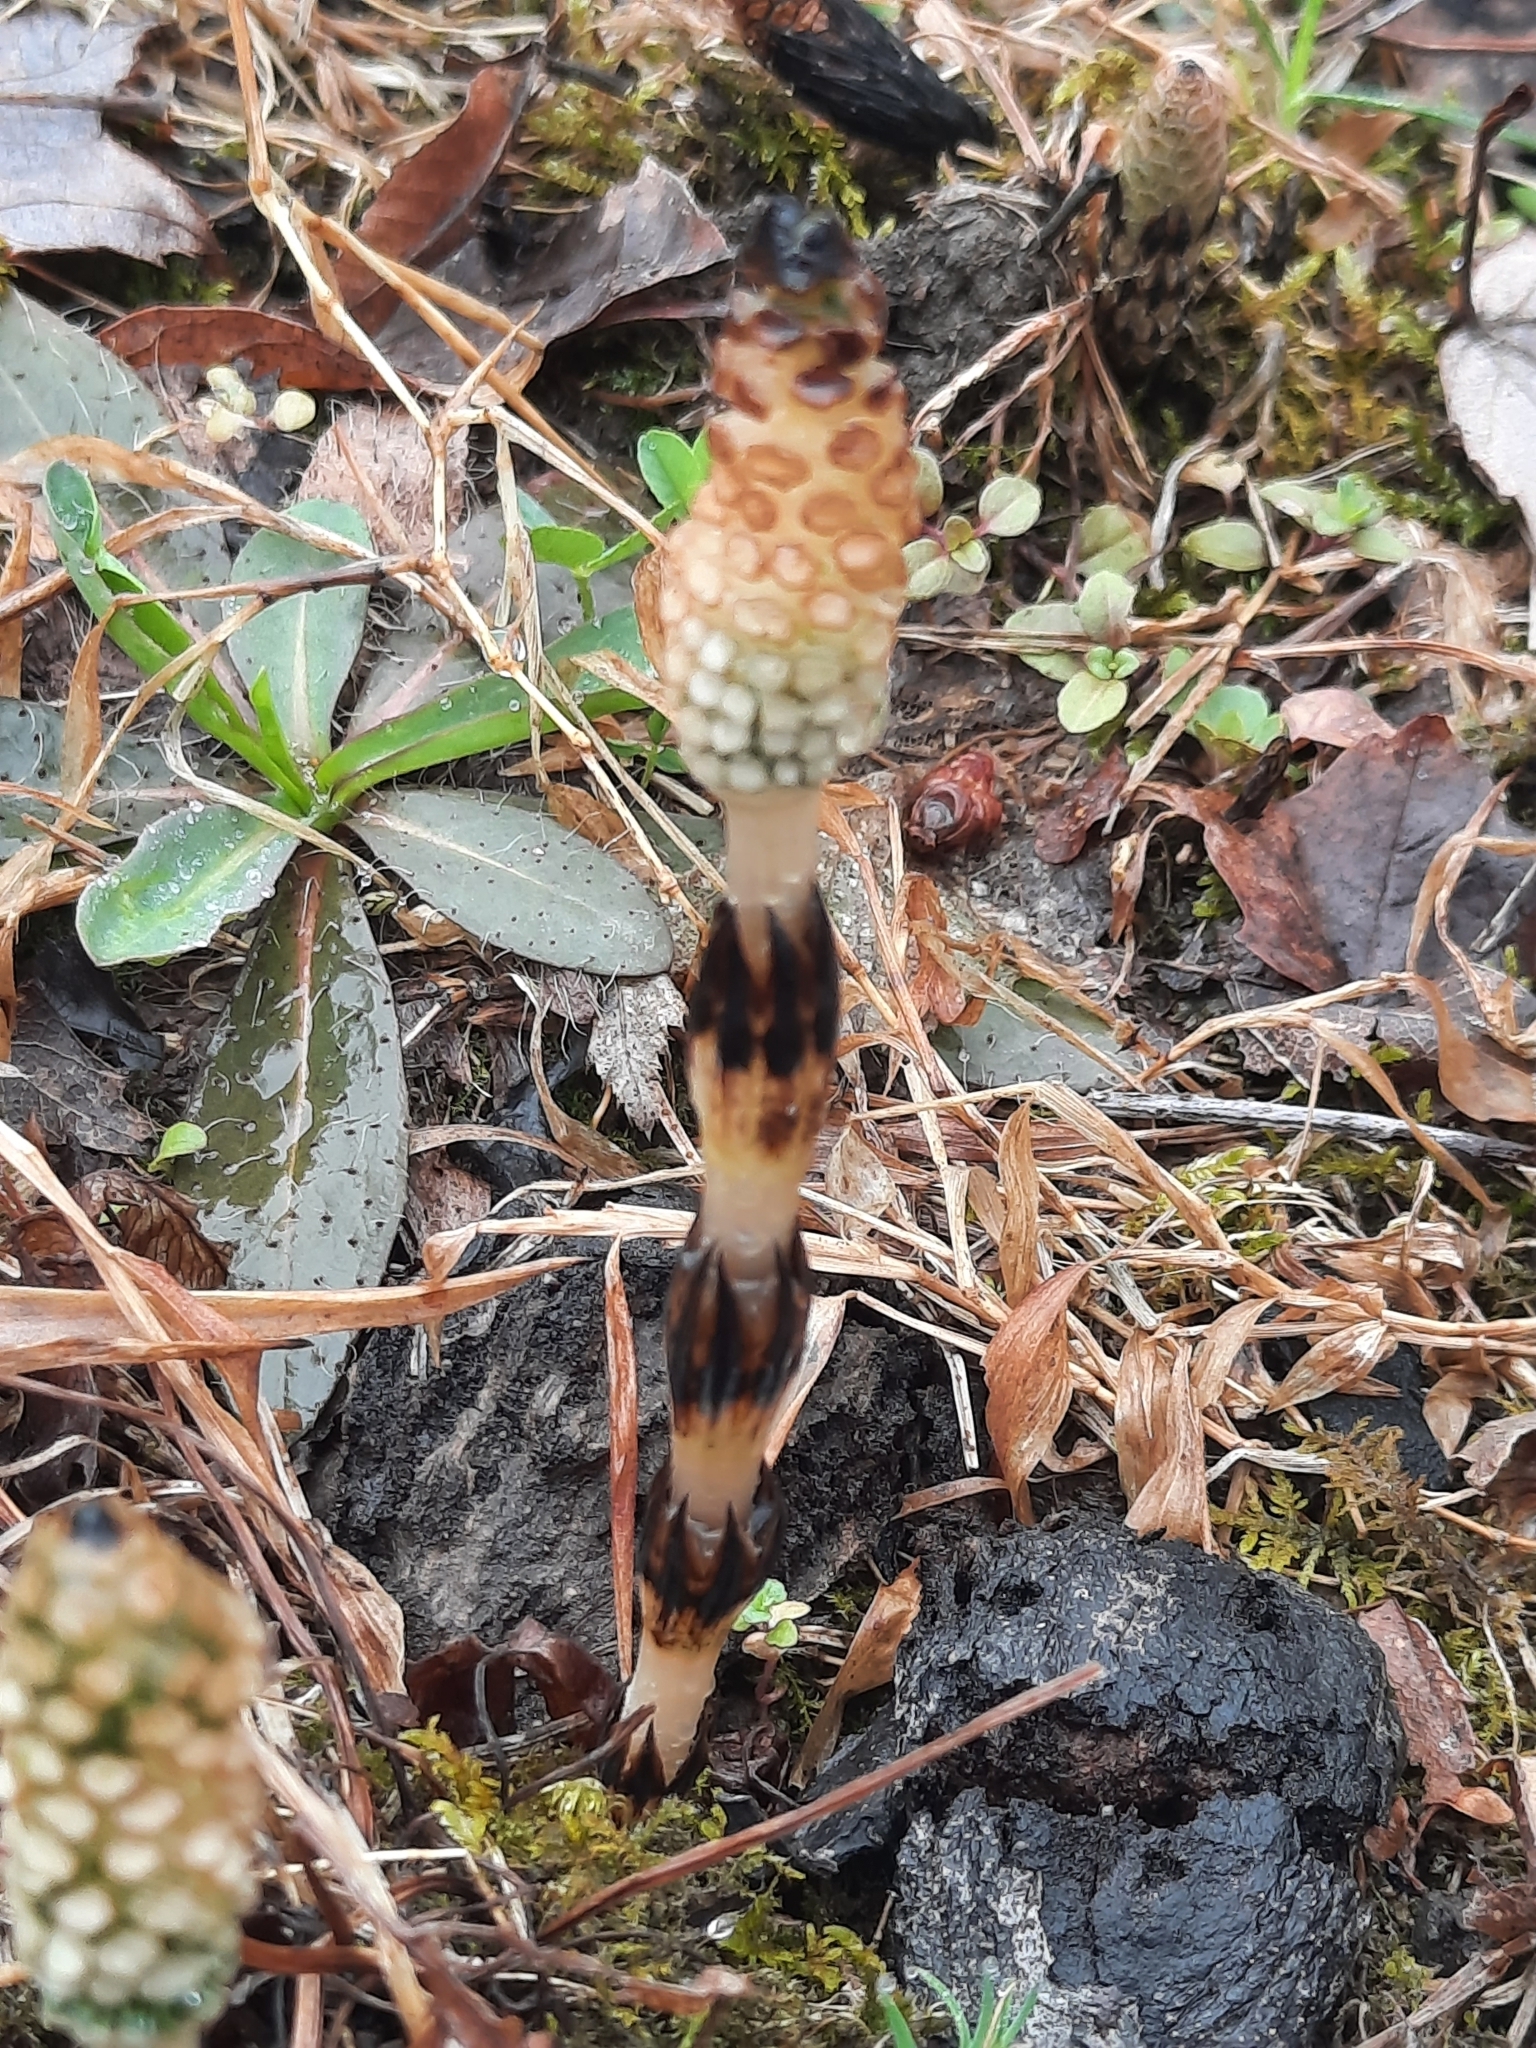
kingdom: Plantae
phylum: Tracheophyta
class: Polypodiopsida
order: Equisetales
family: Equisetaceae
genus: Equisetum
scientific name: Equisetum arvense
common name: Field horsetail
